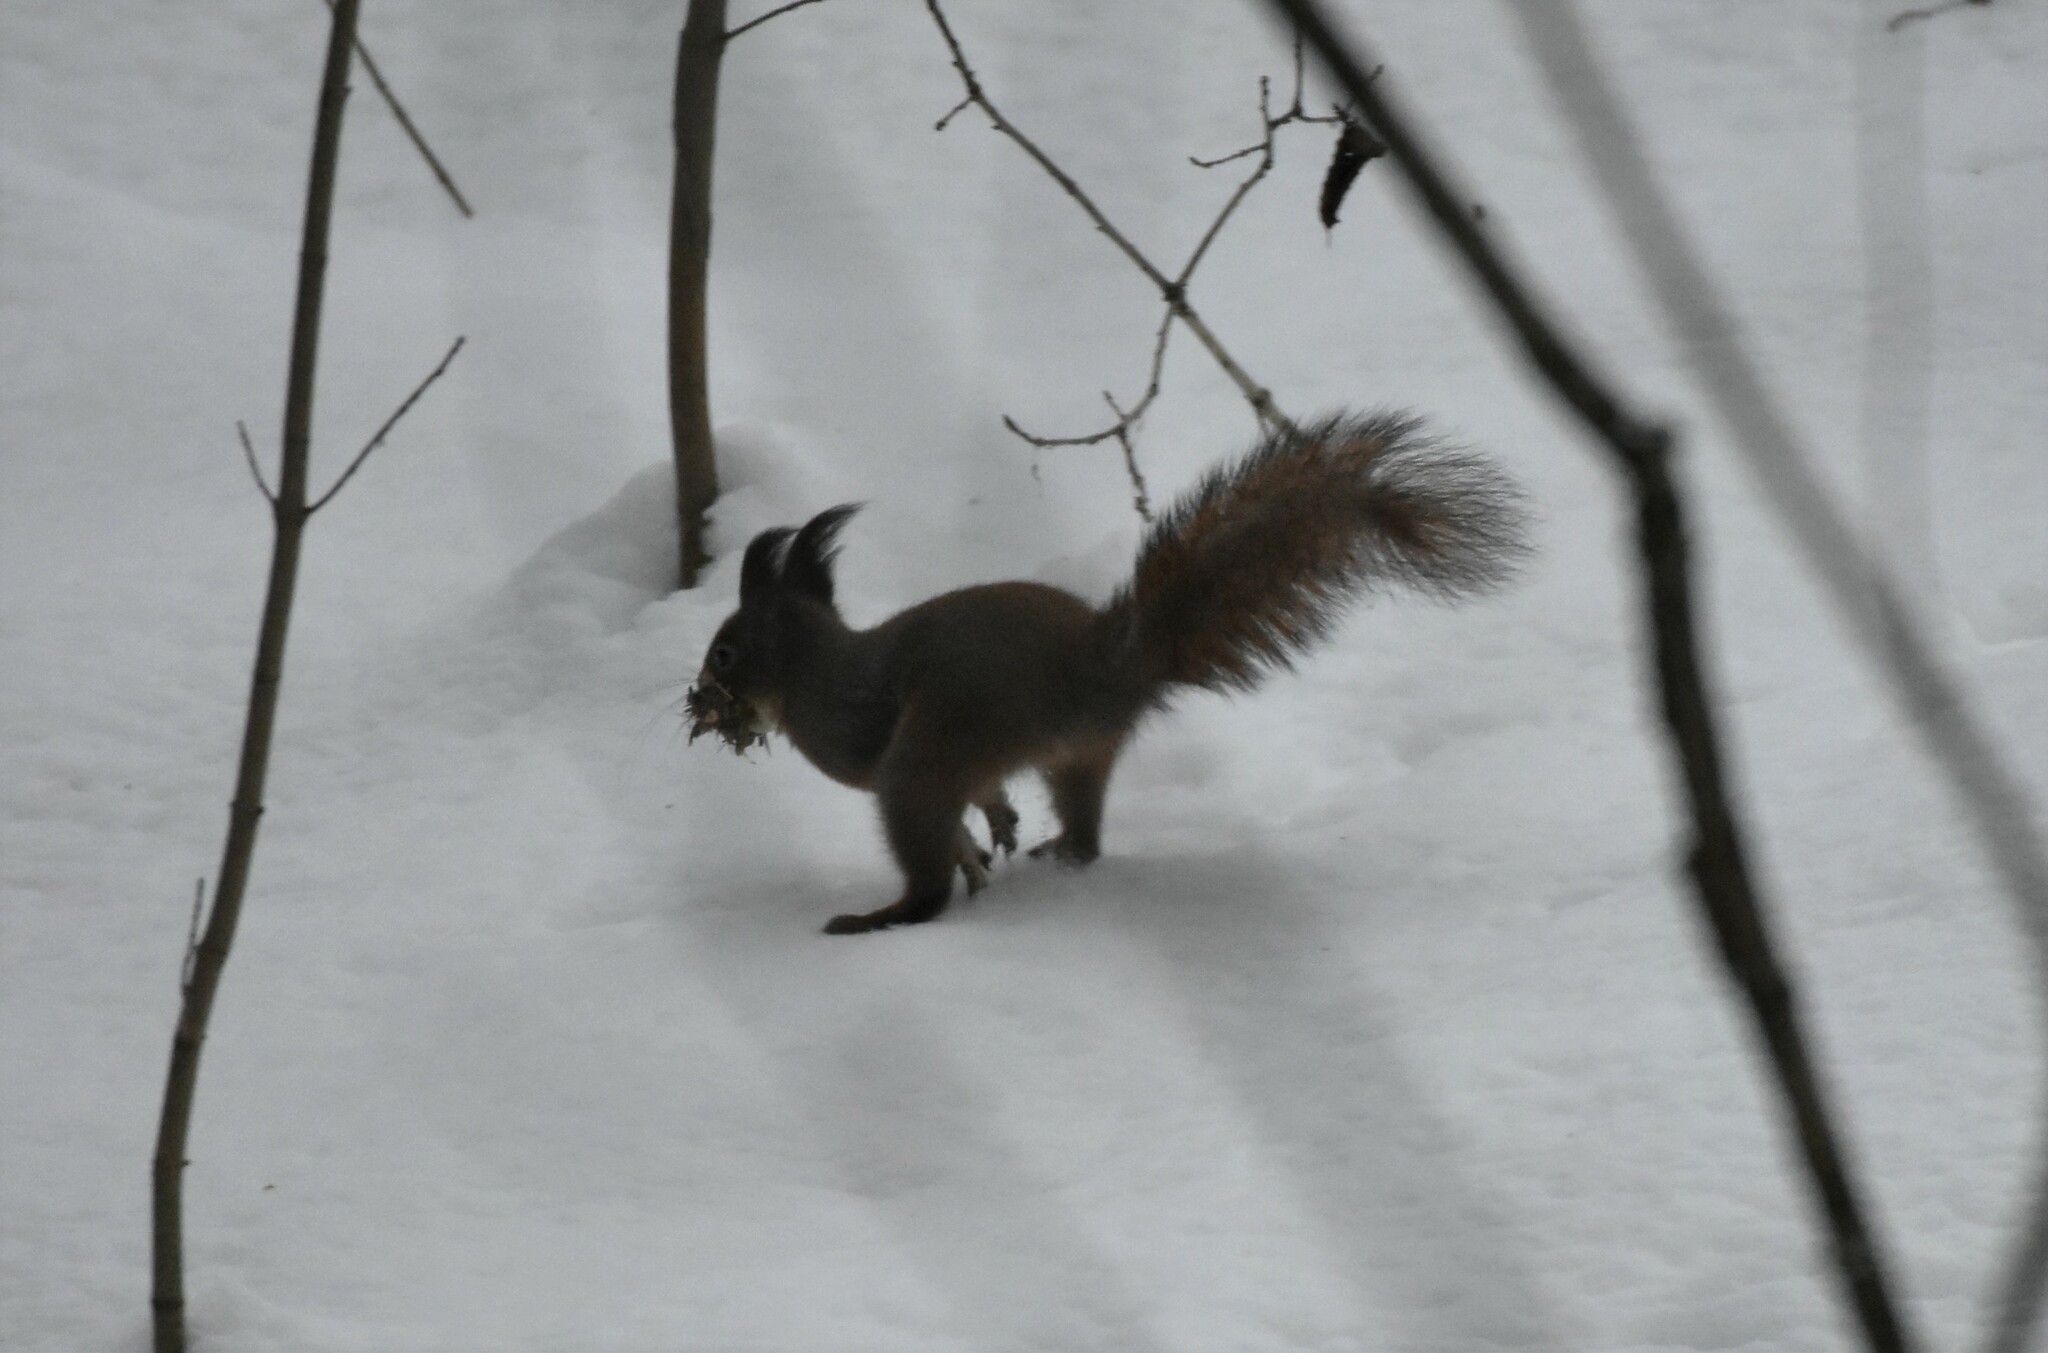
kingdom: Animalia
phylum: Chordata
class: Mammalia
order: Rodentia
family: Sciuridae
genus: Sciurus
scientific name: Sciurus vulgaris
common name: Eurasian red squirrel
